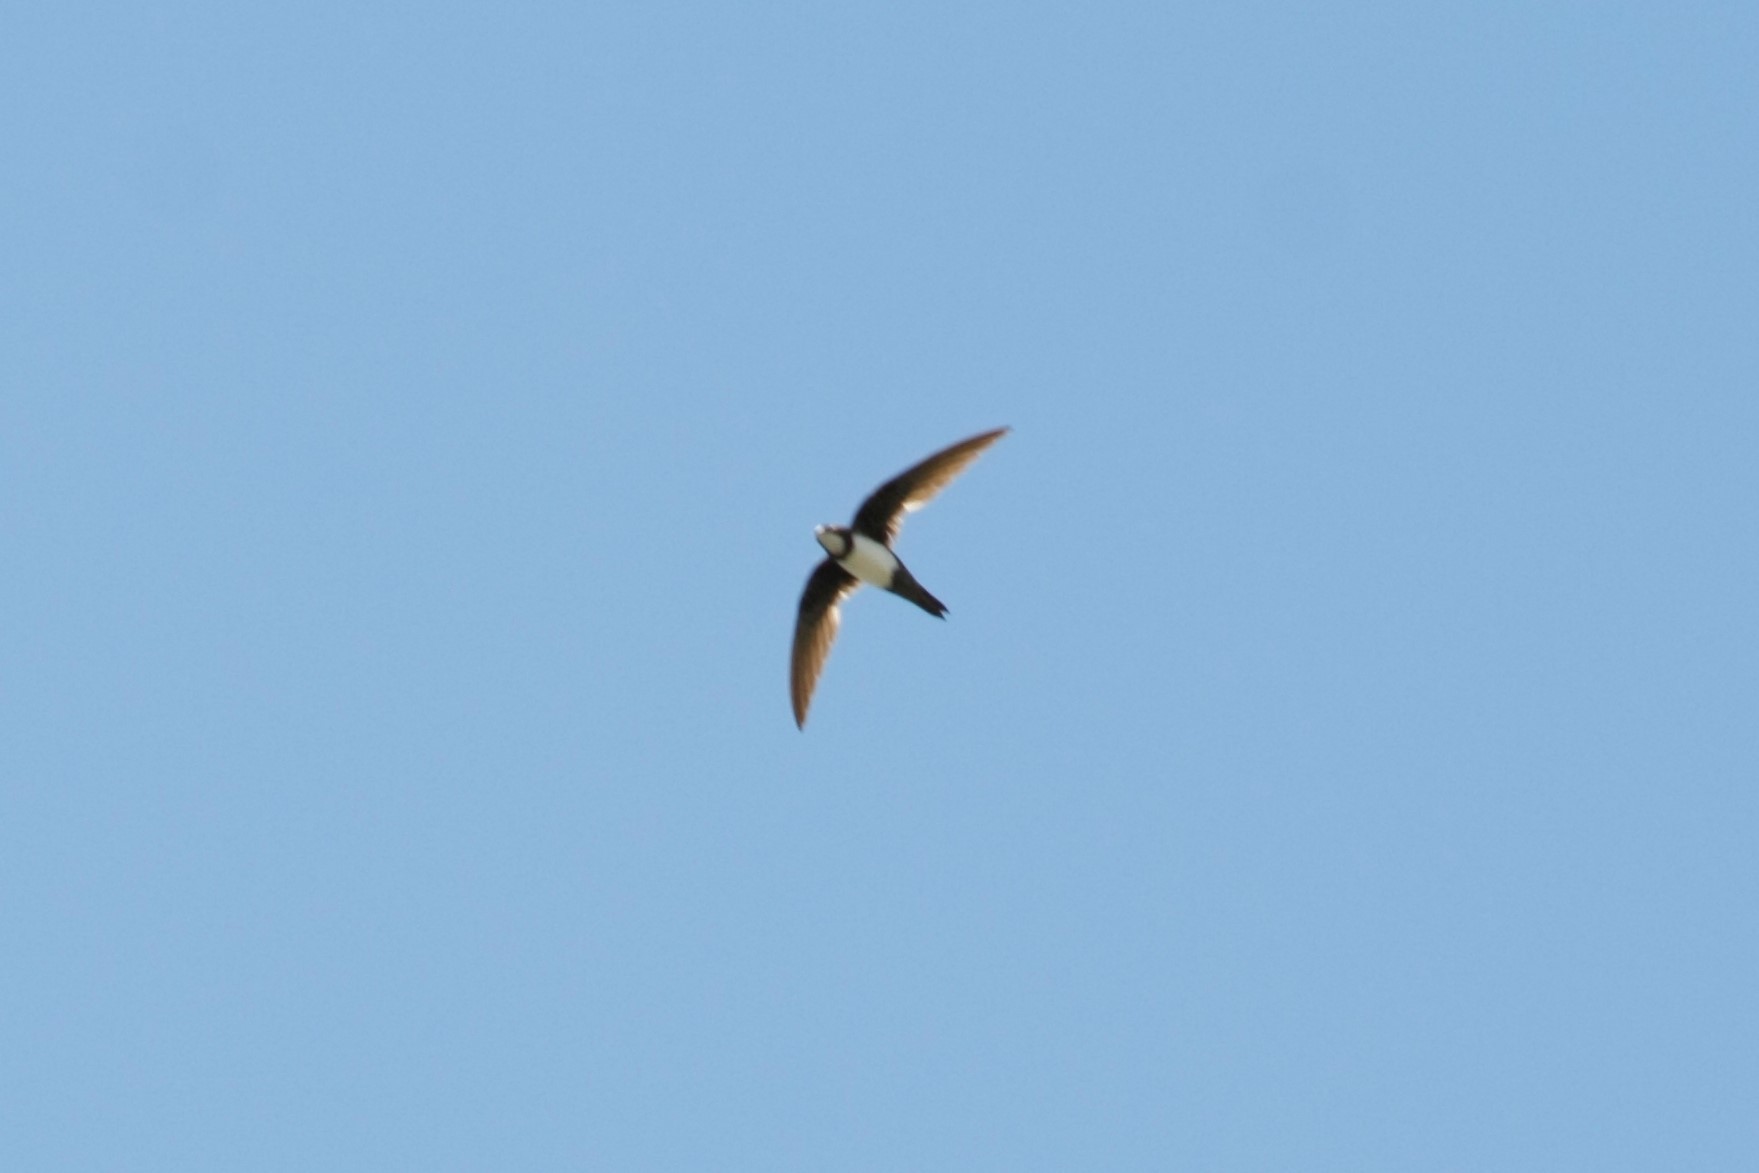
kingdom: Animalia
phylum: Chordata
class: Aves
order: Apodiformes
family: Apodidae
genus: Tachymarptis
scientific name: Tachymarptis melba
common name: Alpine swift
